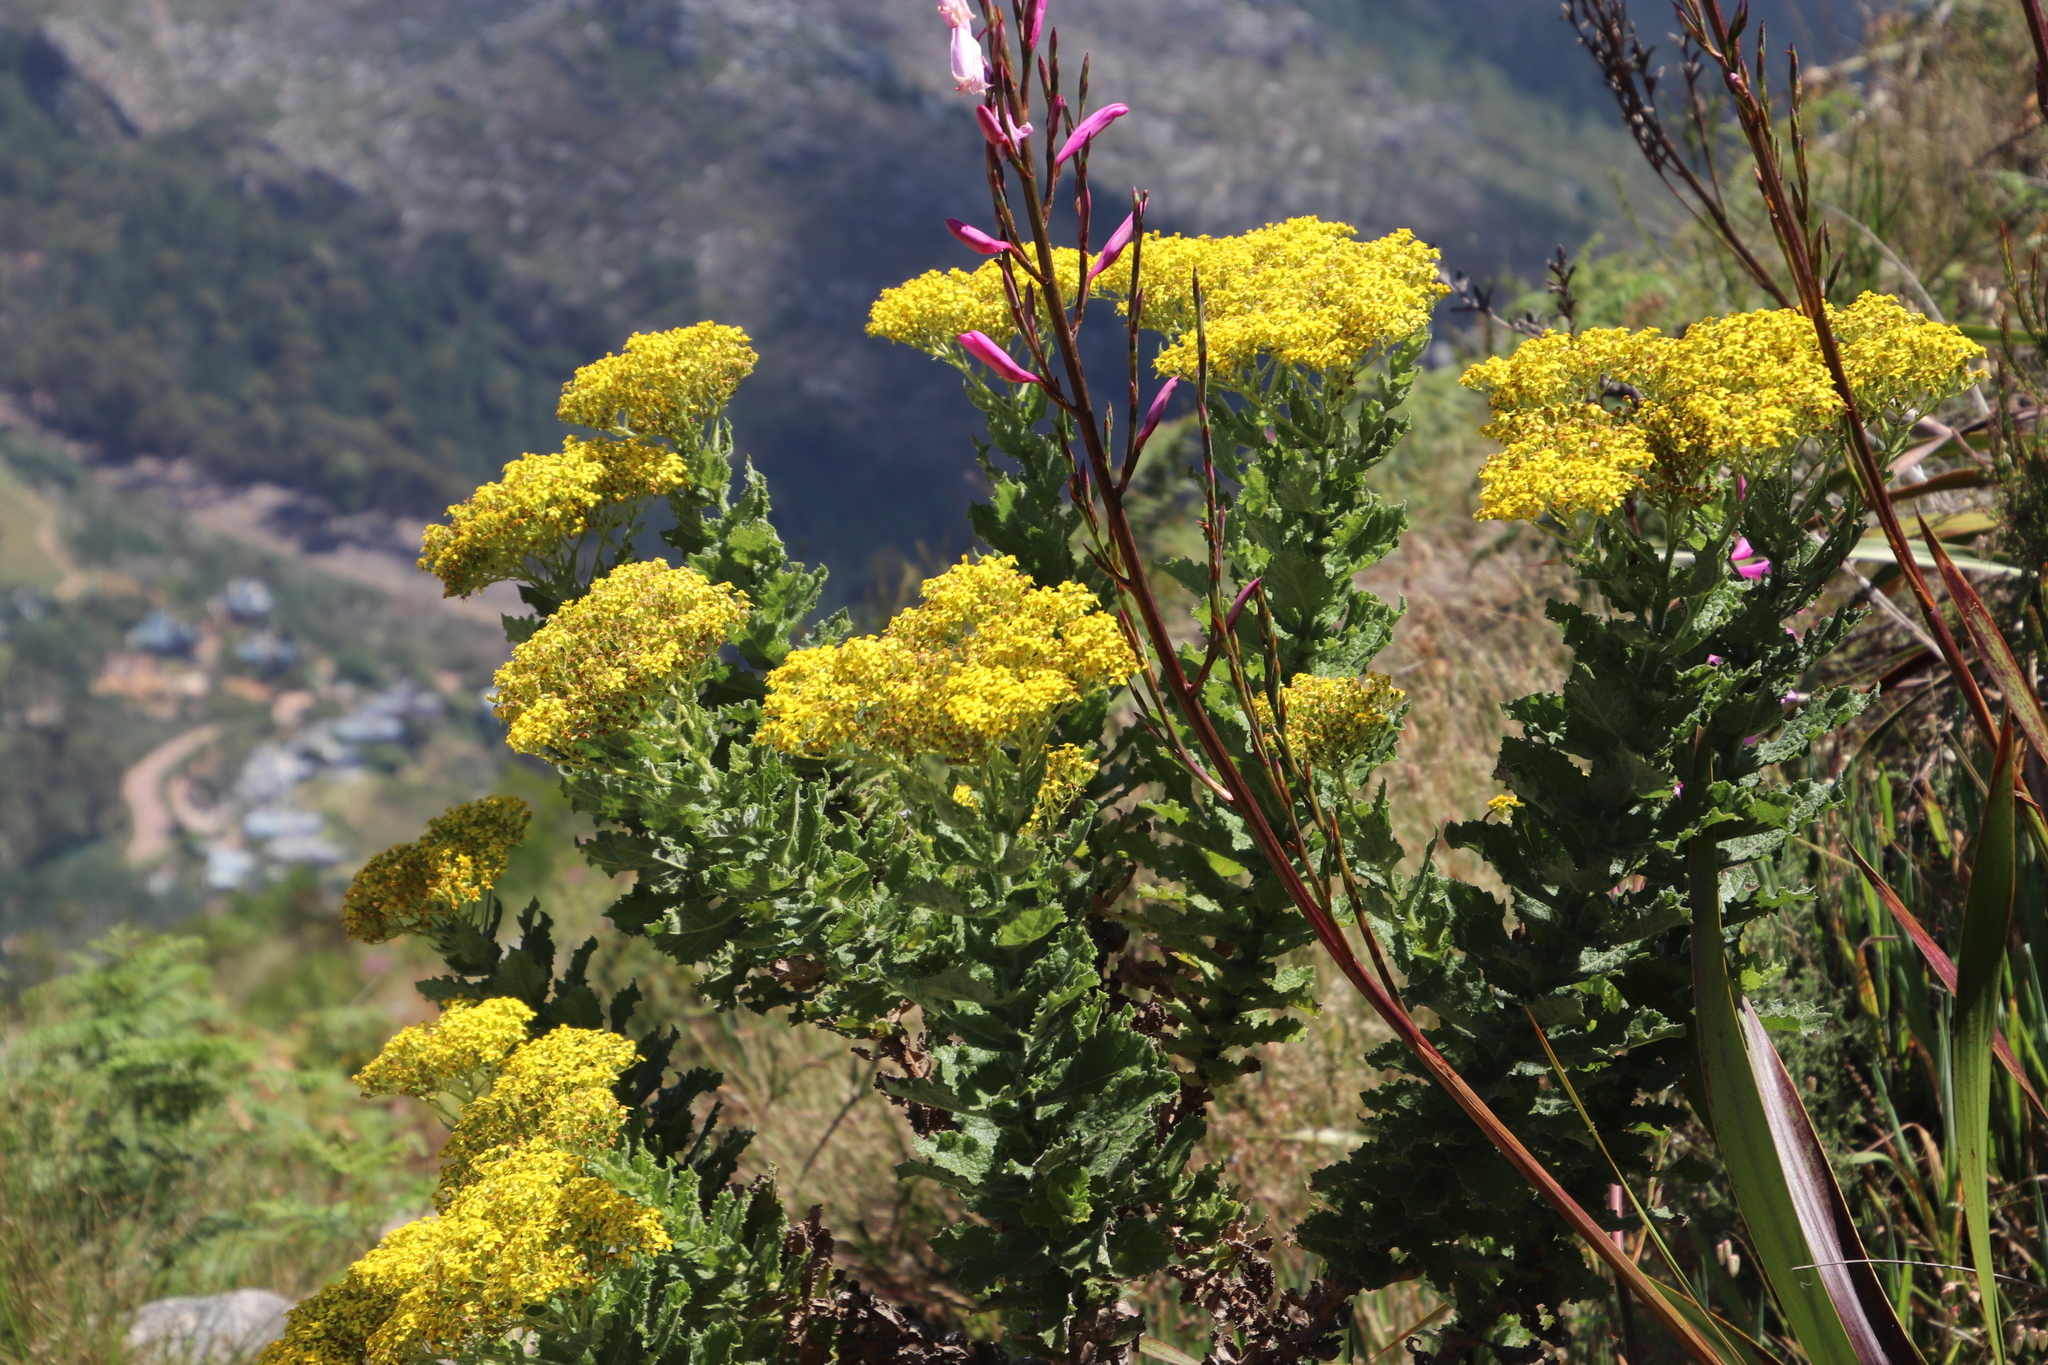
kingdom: Plantae
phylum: Tracheophyta
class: Magnoliopsida
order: Asterales
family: Asteraceae
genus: Senecio
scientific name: Senecio rigidus
